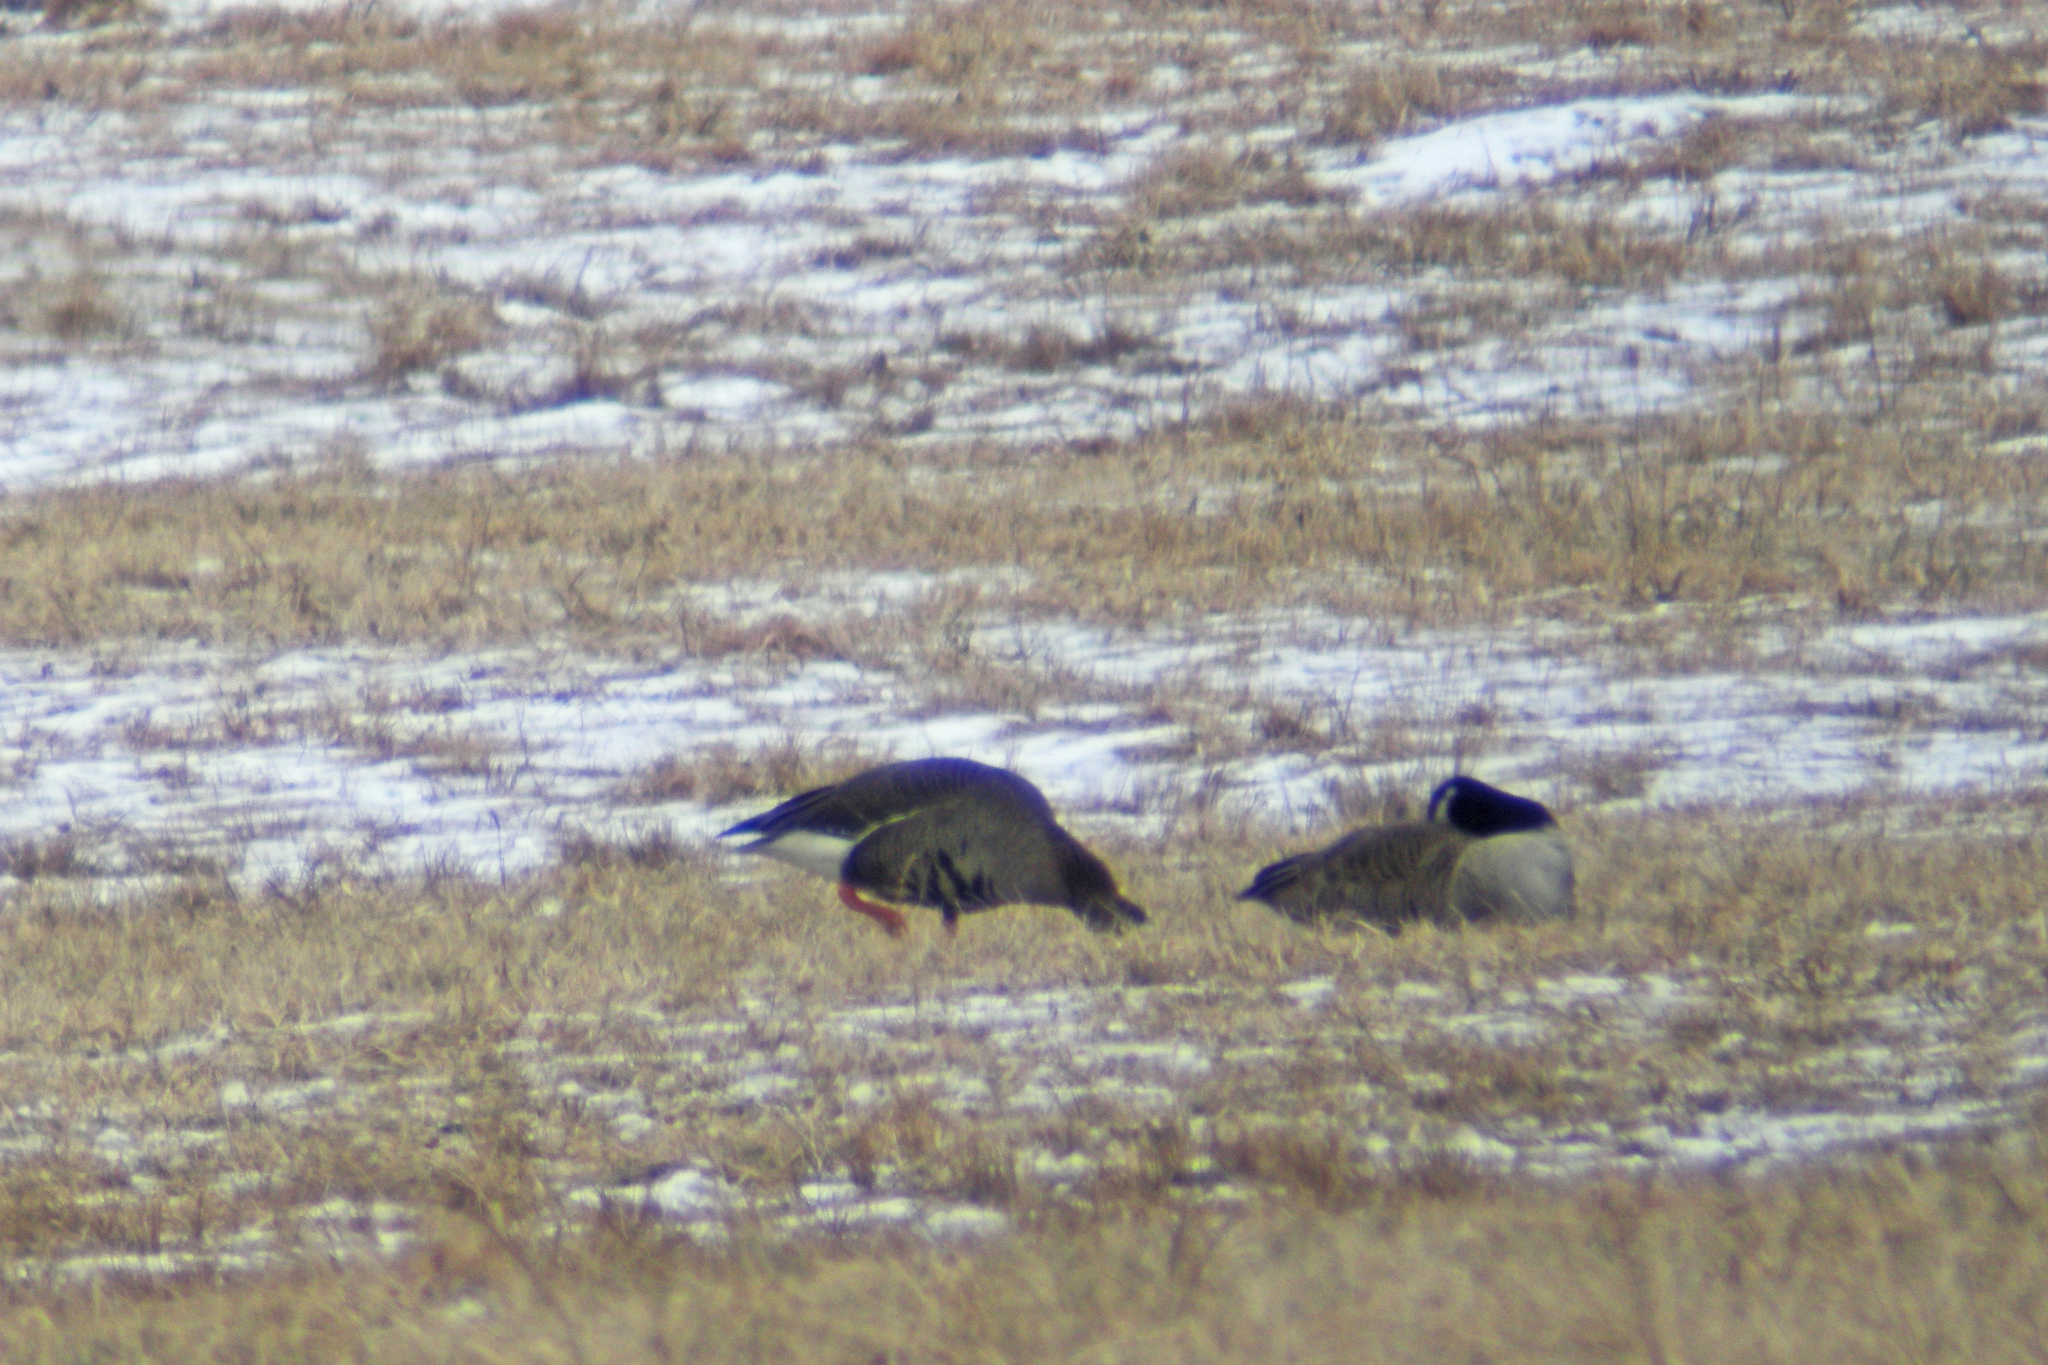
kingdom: Animalia
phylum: Chordata
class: Aves
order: Anseriformes
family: Anatidae
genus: Anser
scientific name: Anser albifrons
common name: Greater white-fronted goose
